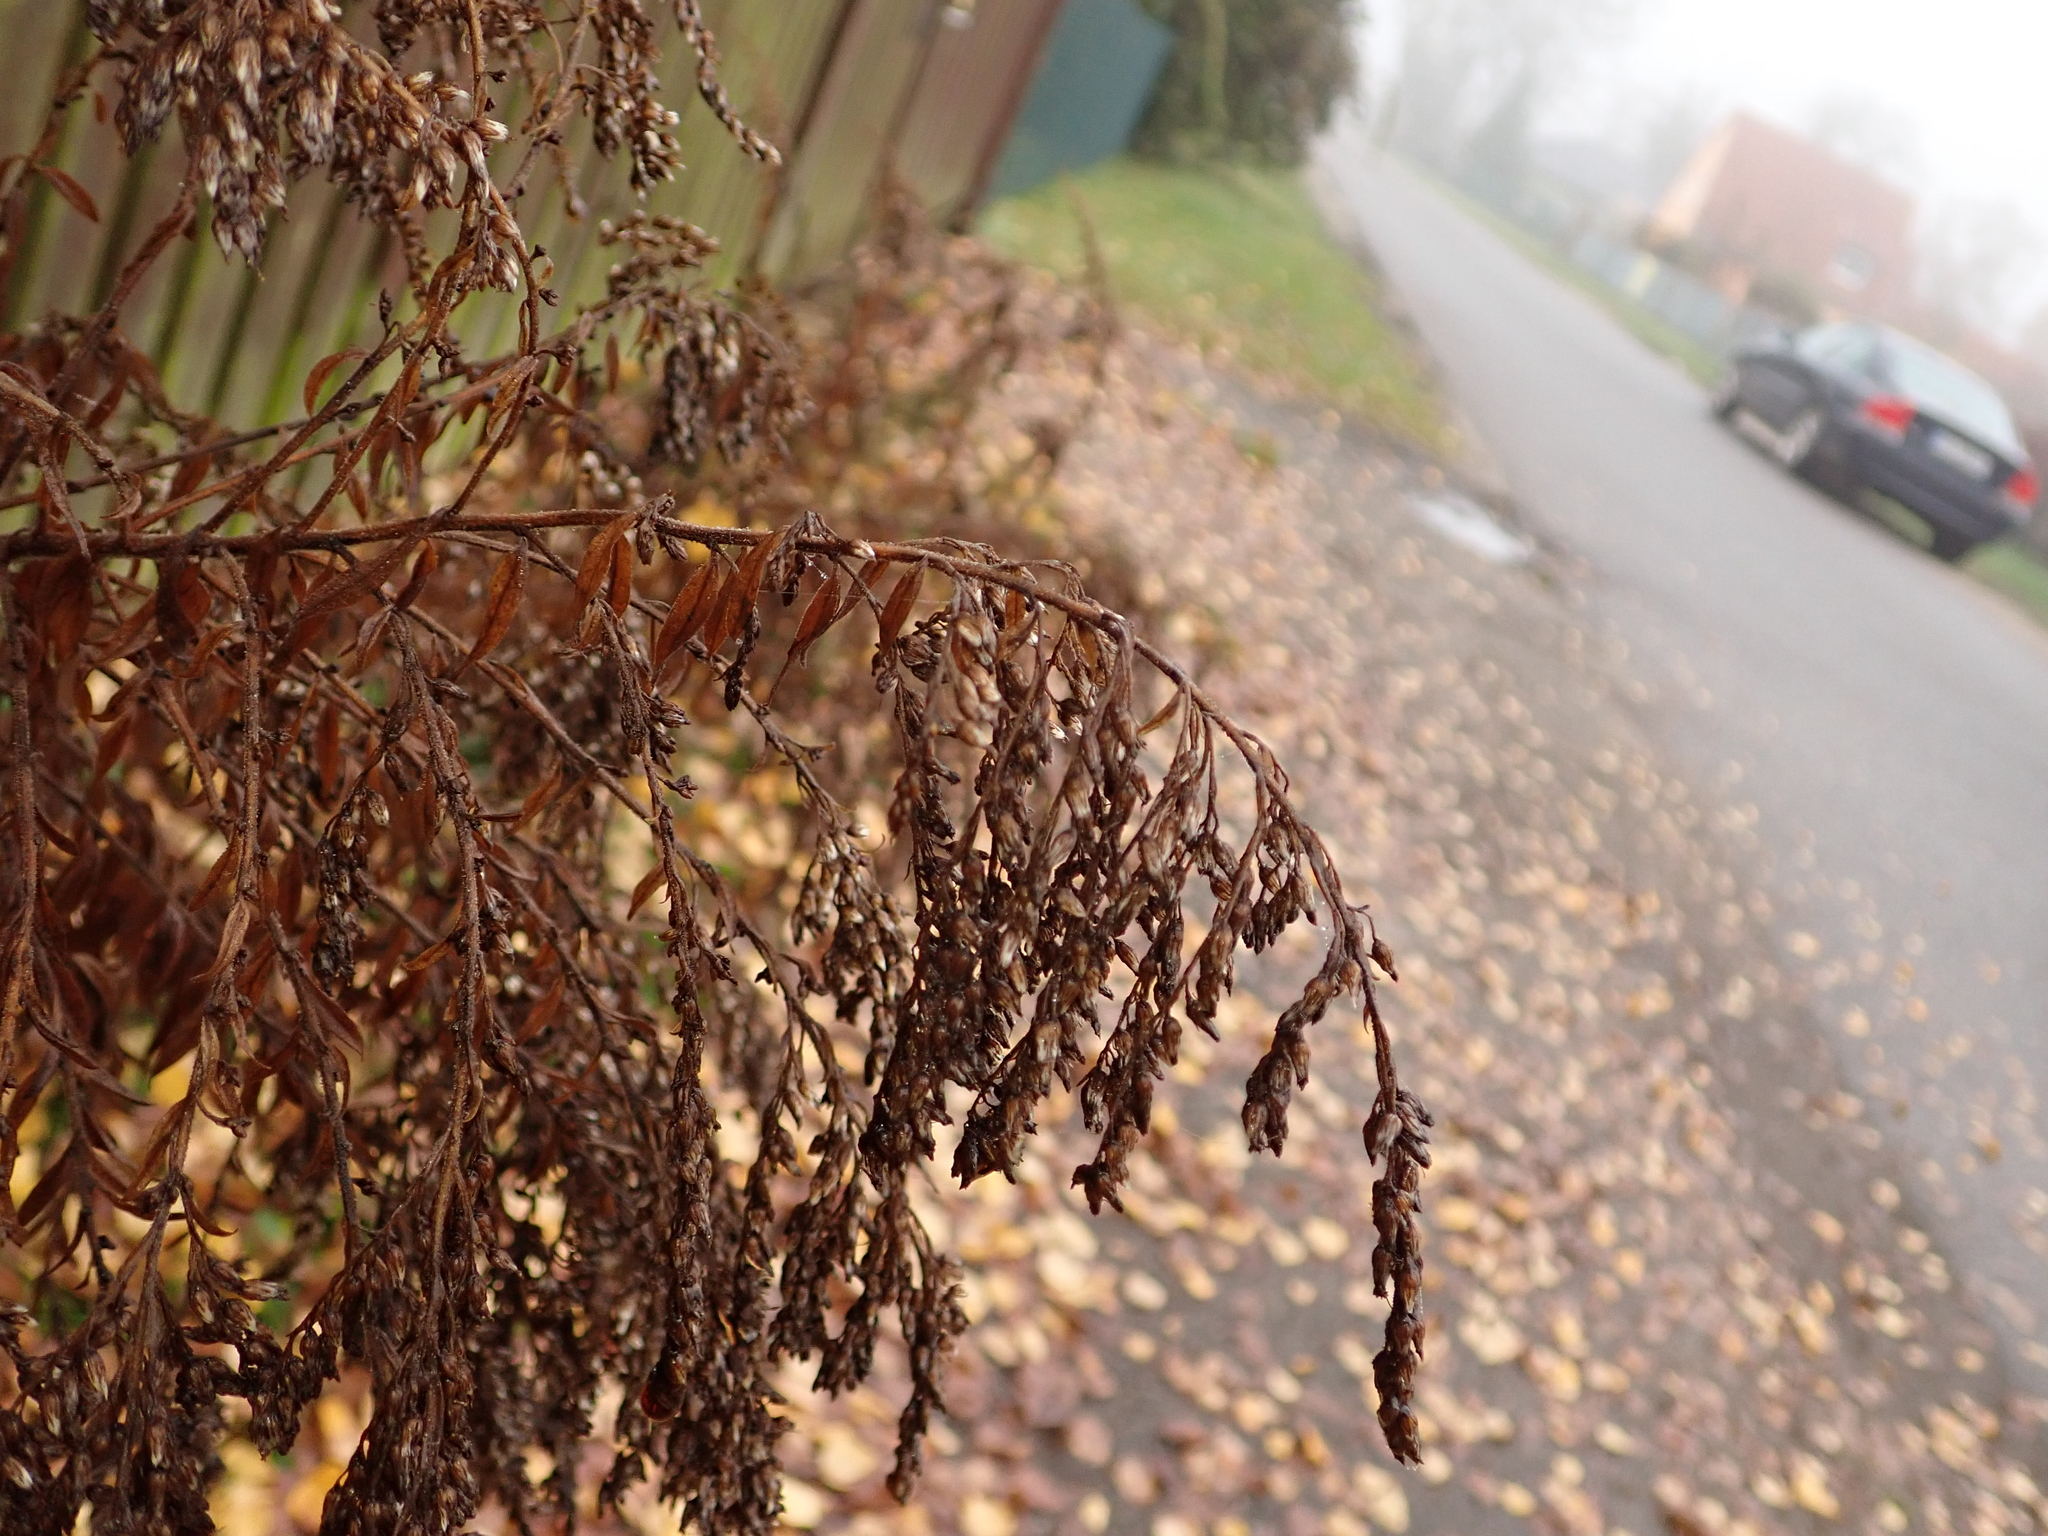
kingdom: Plantae
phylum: Tracheophyta
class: Magnoliopsida
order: Asterales
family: Asteraceae
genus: Solidago
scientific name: Solidago canadensis
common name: Canada goldenrod
